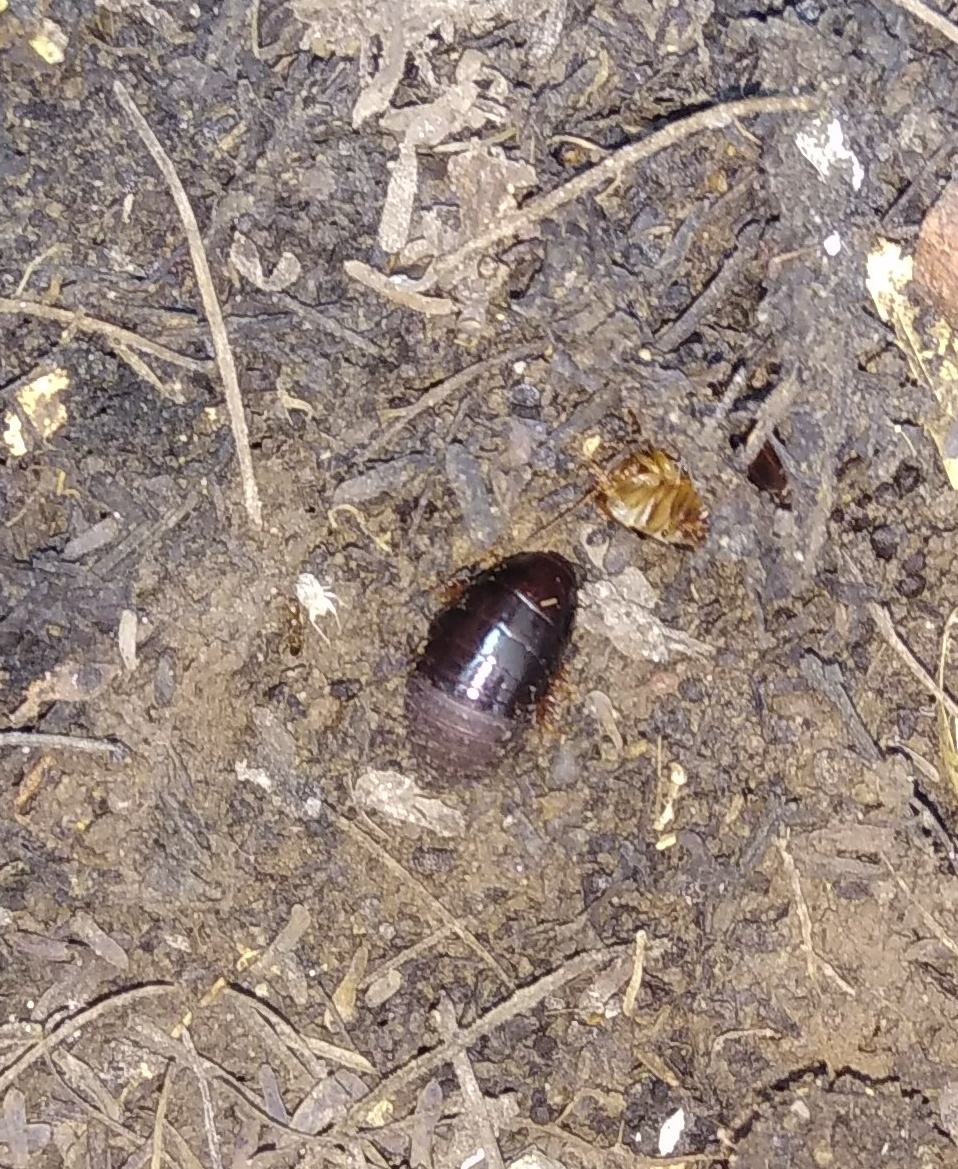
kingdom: Animalia
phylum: Arthropoda
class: Insecta
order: Blattodea
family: Blaberidae
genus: Pycnoscelus
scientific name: Pycnoscelus surinamensis
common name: Surinam cockroach
